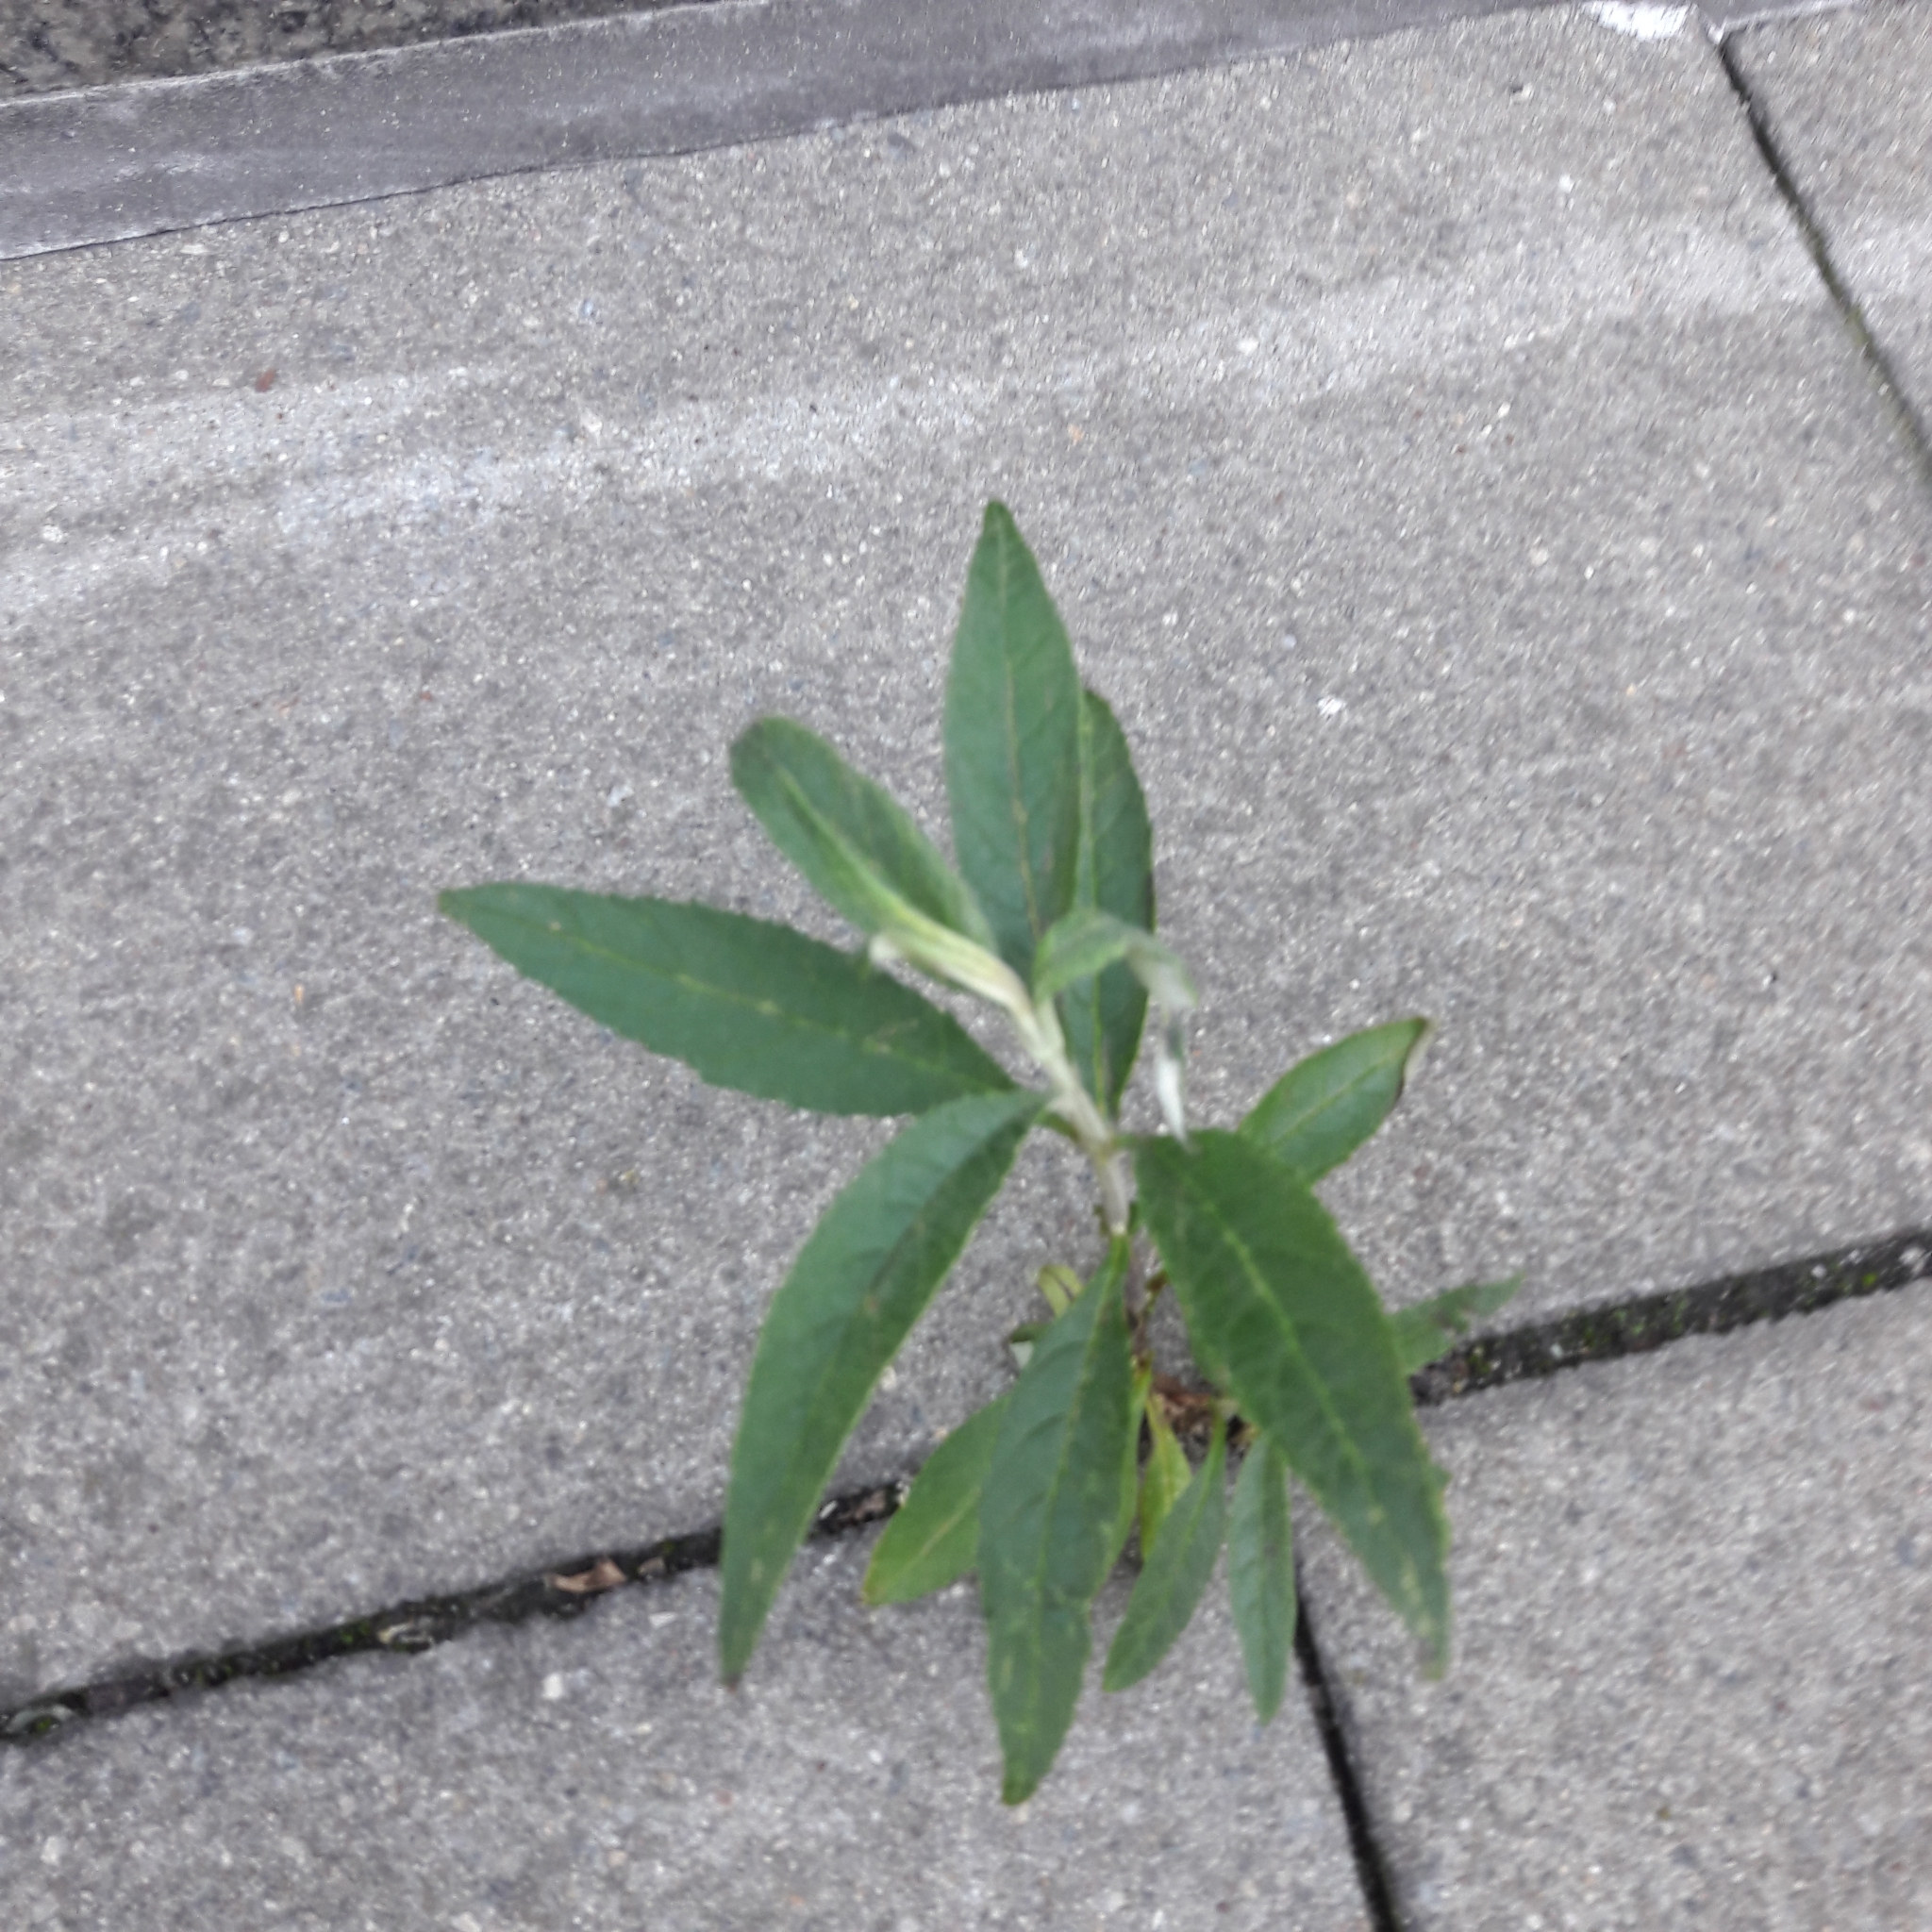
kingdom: Plantae
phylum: Tracheophyta
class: Magnoliopsida
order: Lamiales
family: Scrophulariaceae
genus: Buddleja
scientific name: Buddleja davidii
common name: Butterfly-bush
